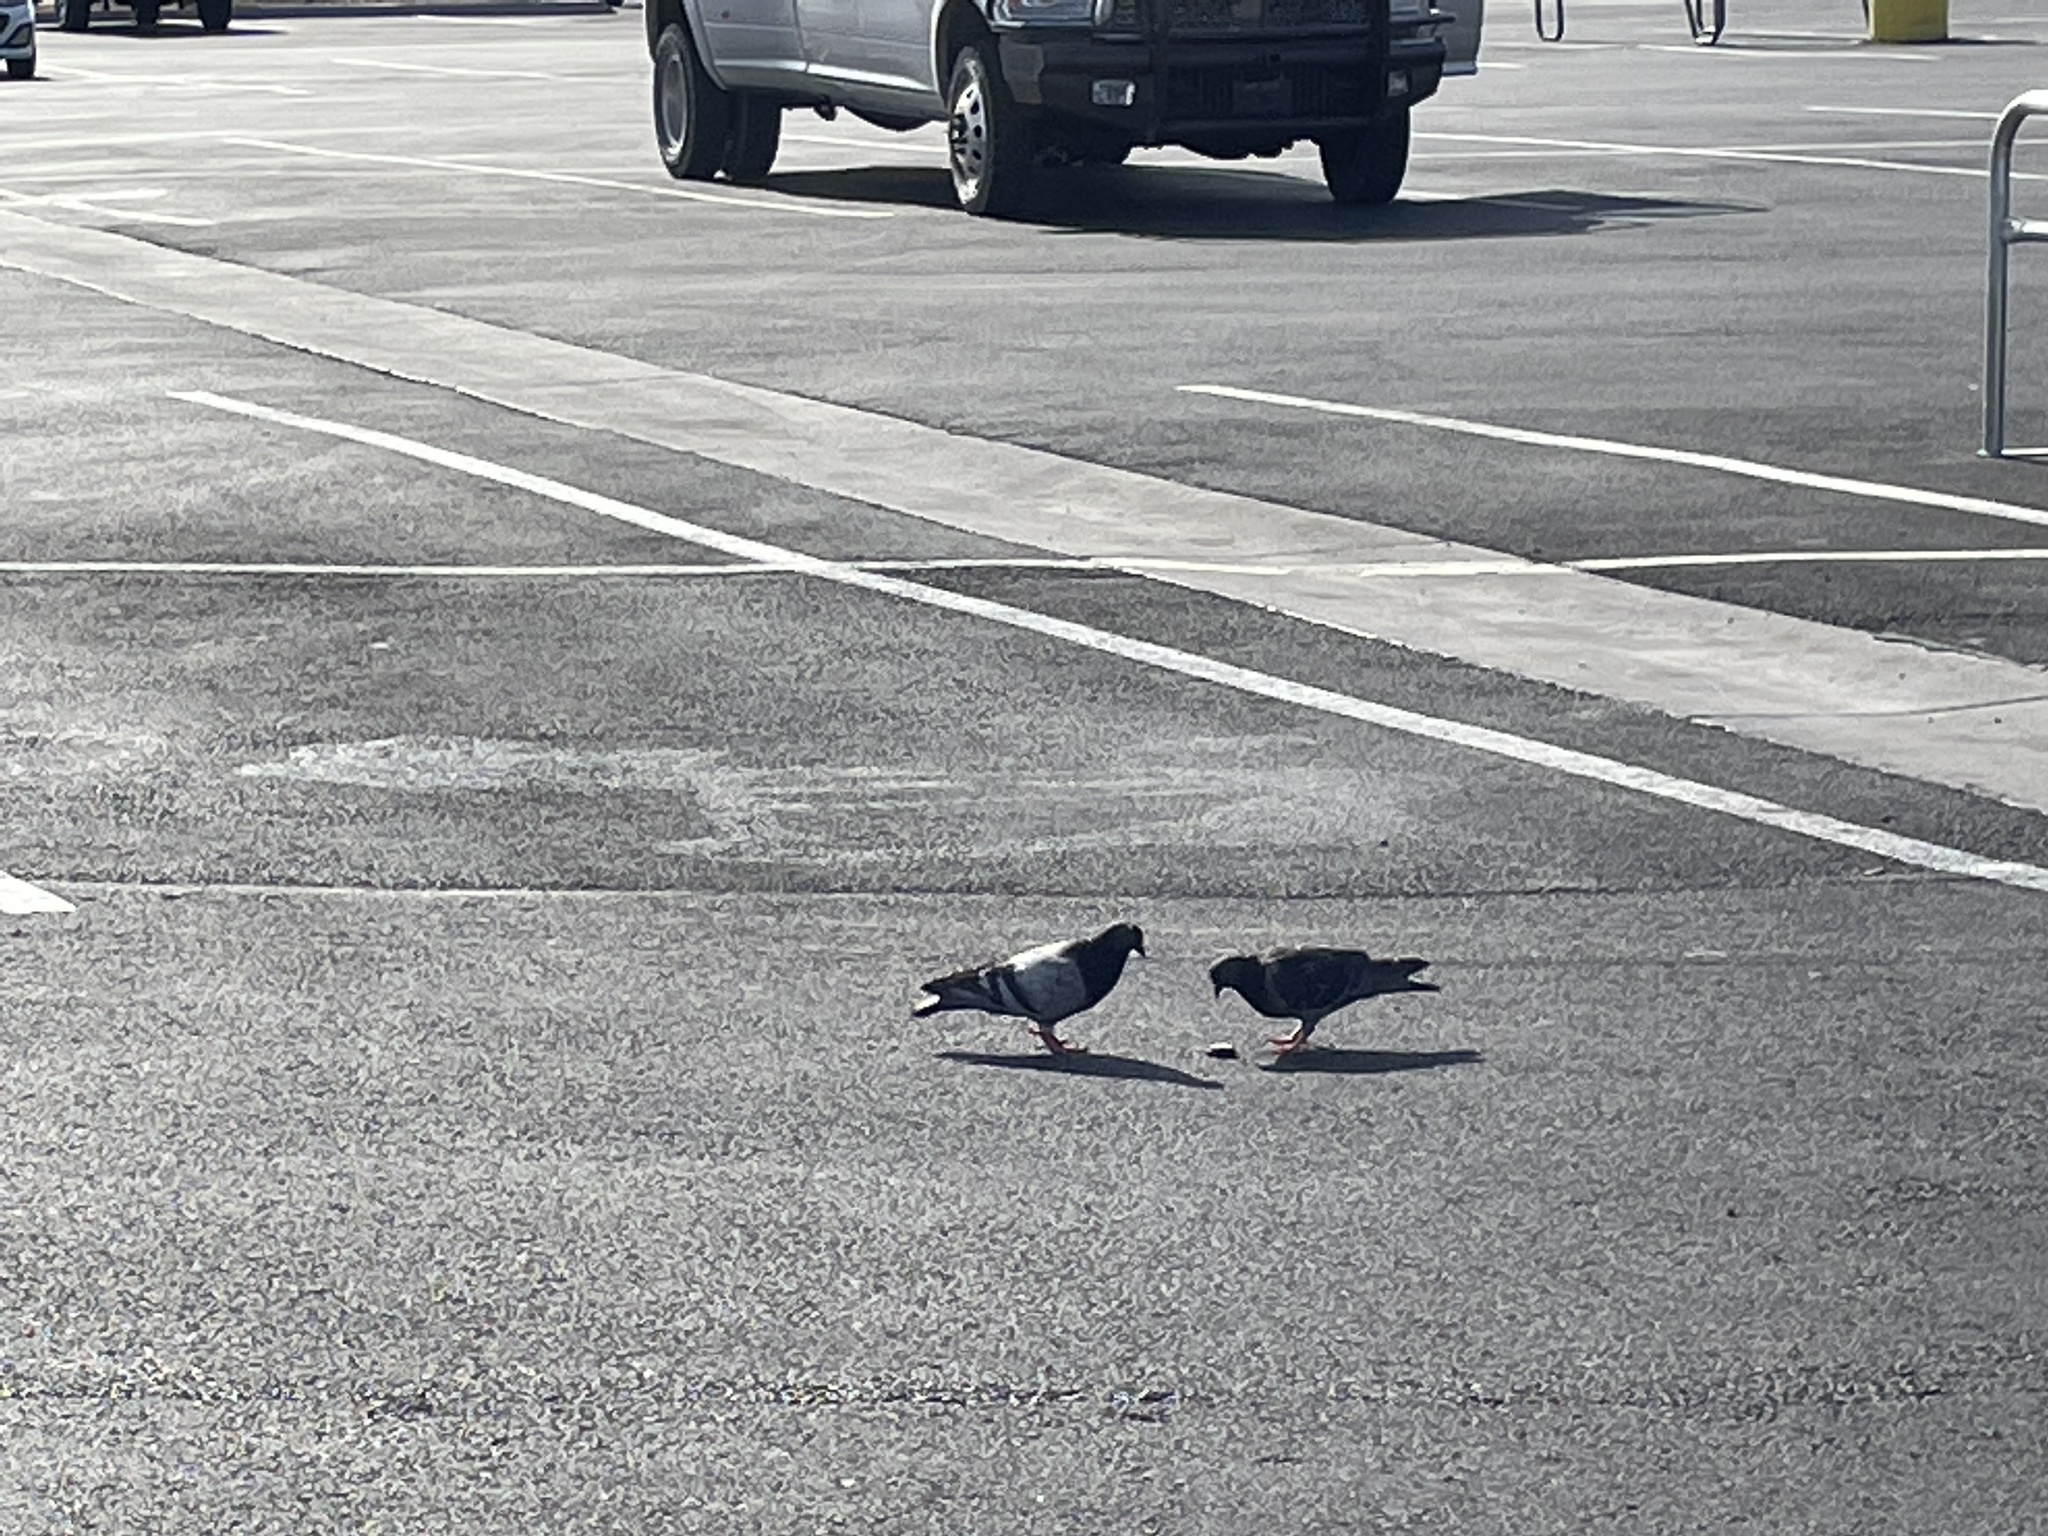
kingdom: Animalia
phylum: Chordata
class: Aves
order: Columbiformes
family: Columbidae
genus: Columba
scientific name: Columba livia
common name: Rock pigeon
